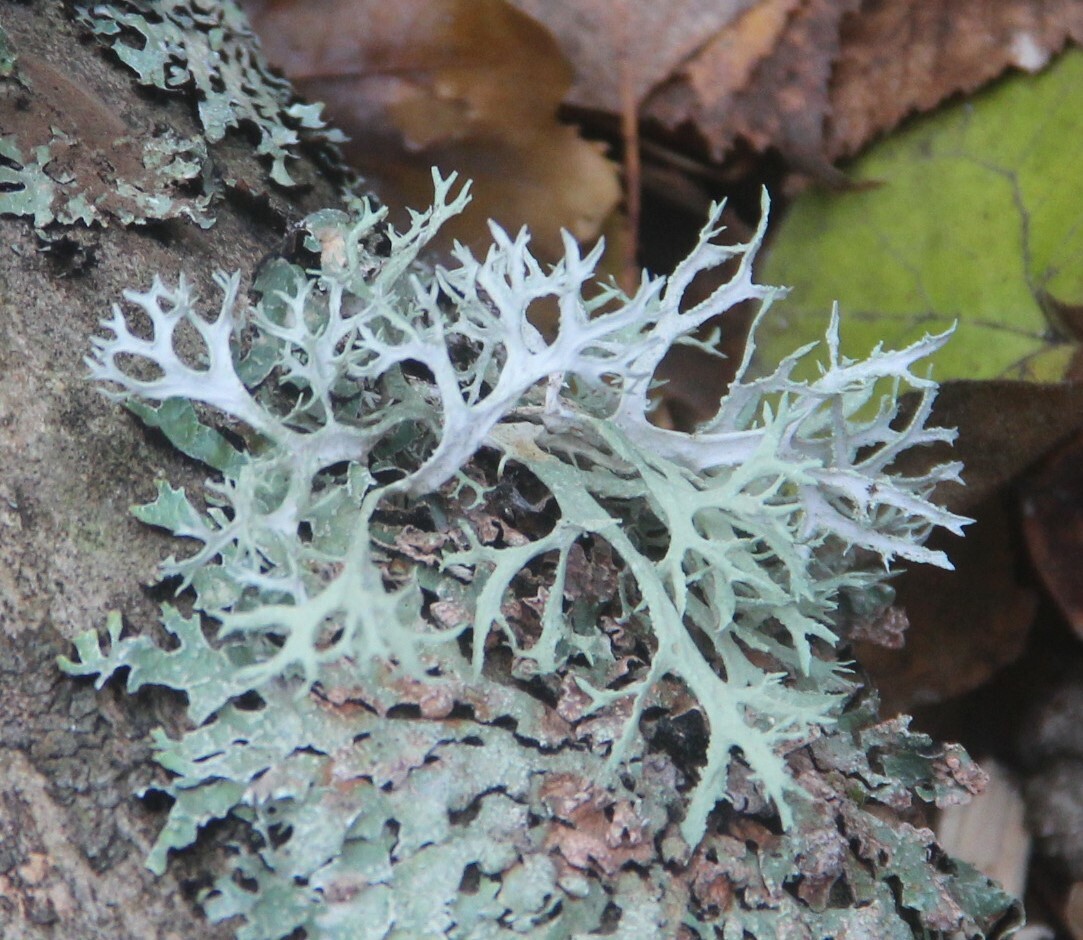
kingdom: Fungi
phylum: Ascomycota
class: Lecanoromycetes
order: Lecanorales
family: Parmeliaceae
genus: Evernia
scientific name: Evernia prunastri
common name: Oak moss
